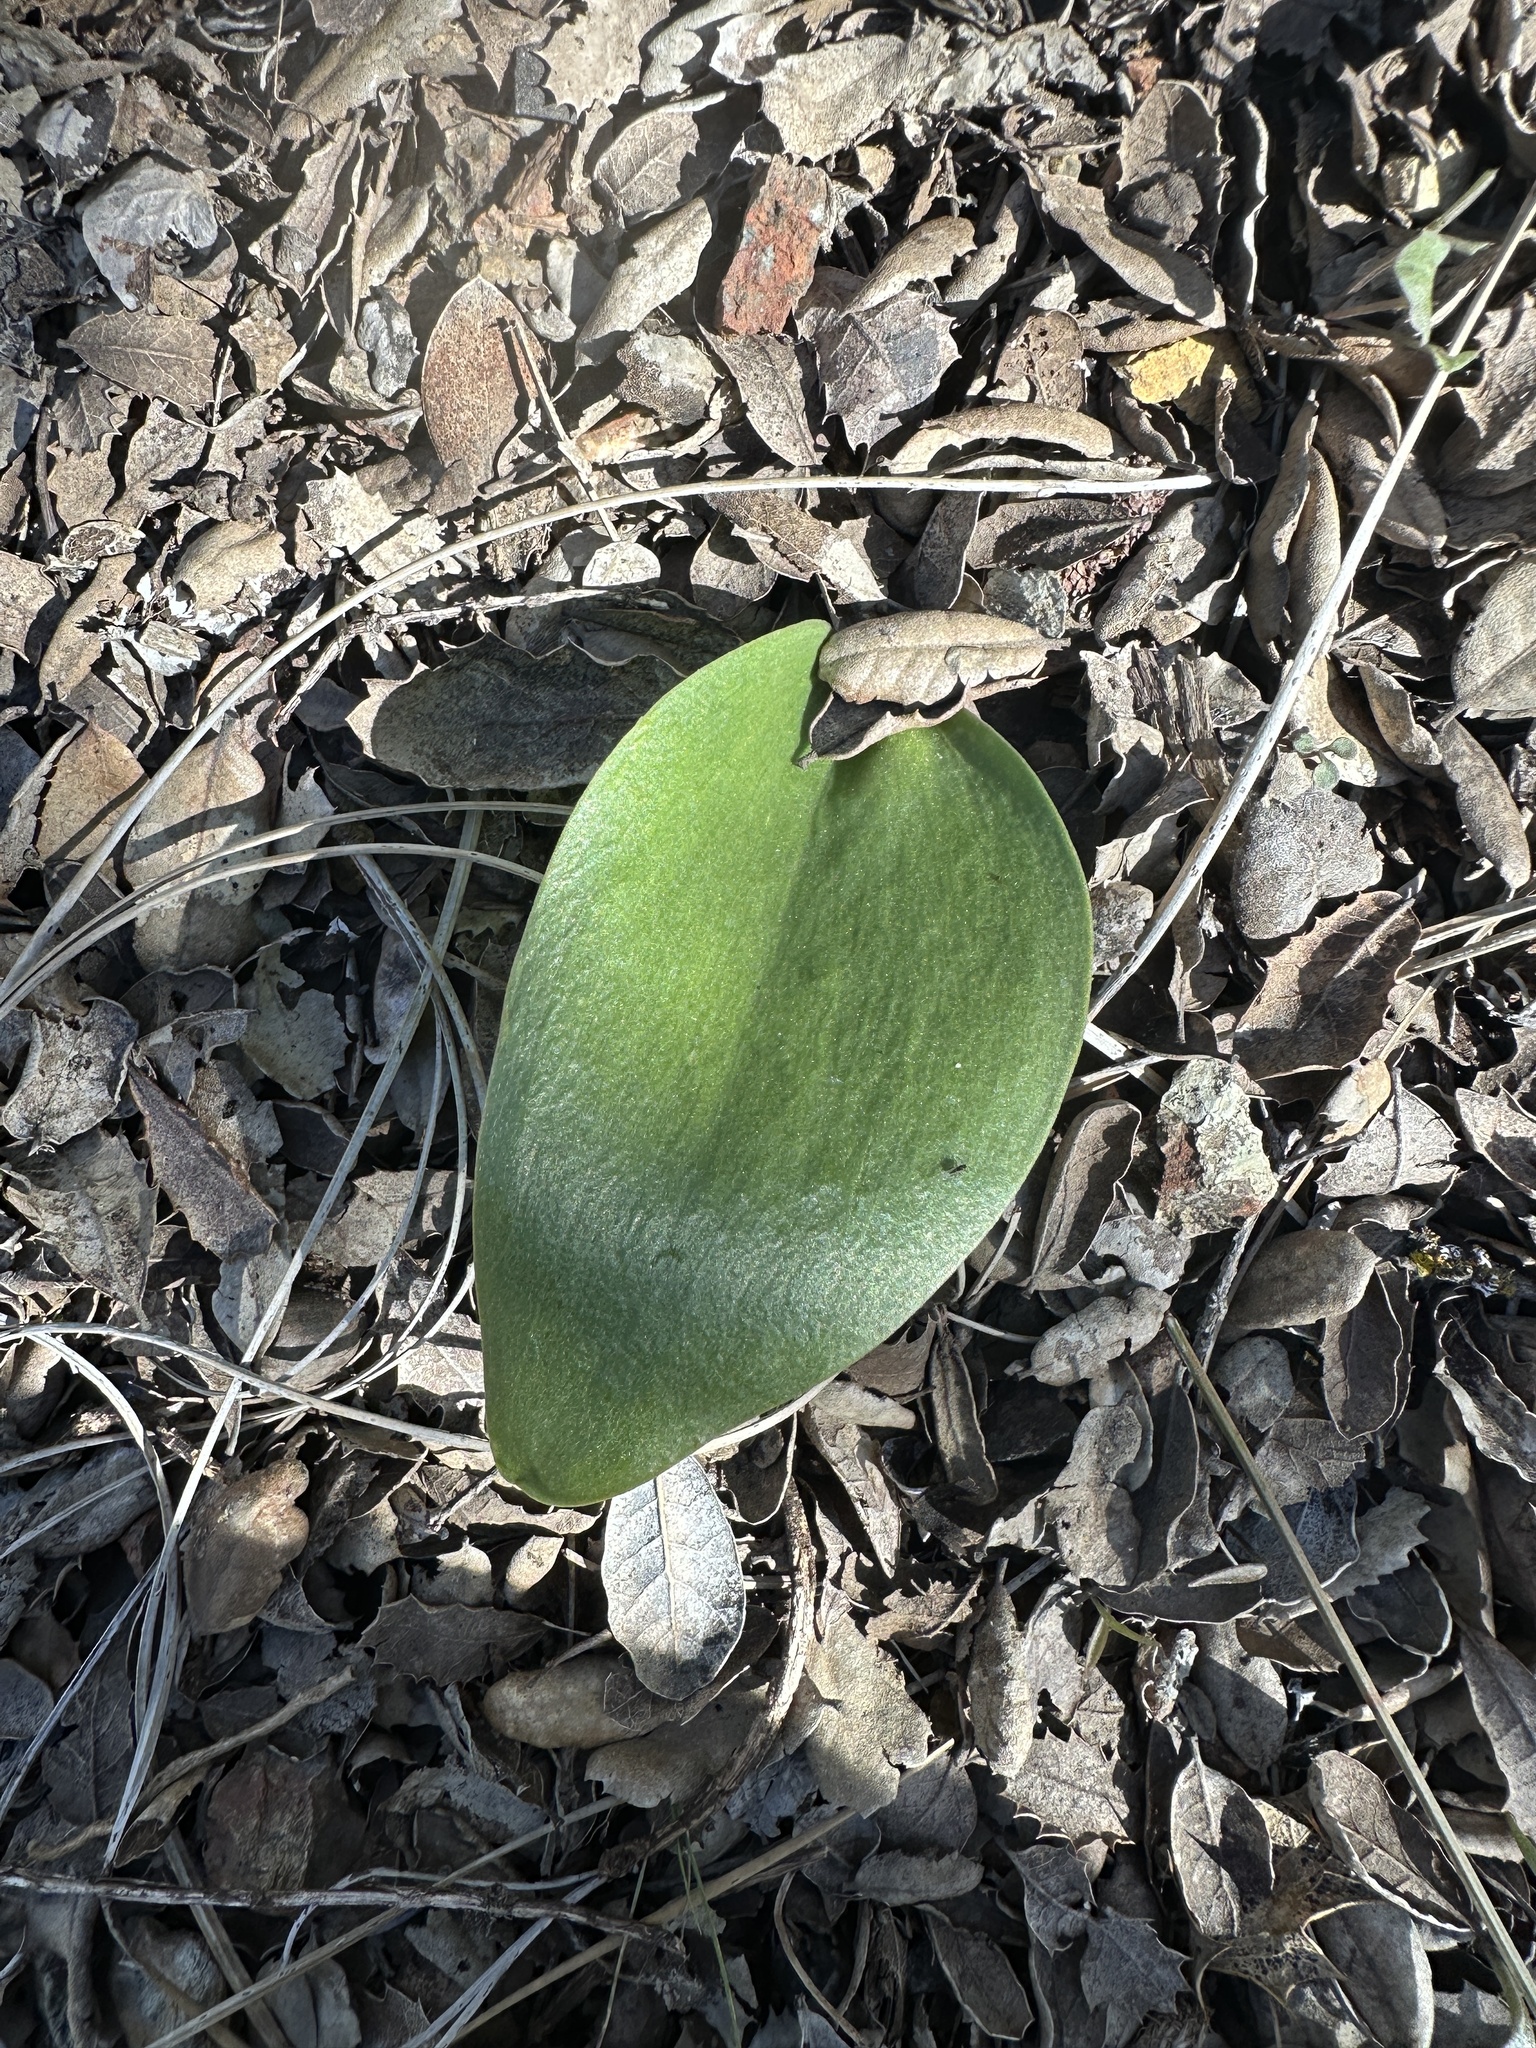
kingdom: Plantae
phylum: Tracheophyta
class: Liliopsida
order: Liliales
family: Liliaceae
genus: Fritillaria
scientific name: Fritillaria viridea
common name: San benito fritillary
